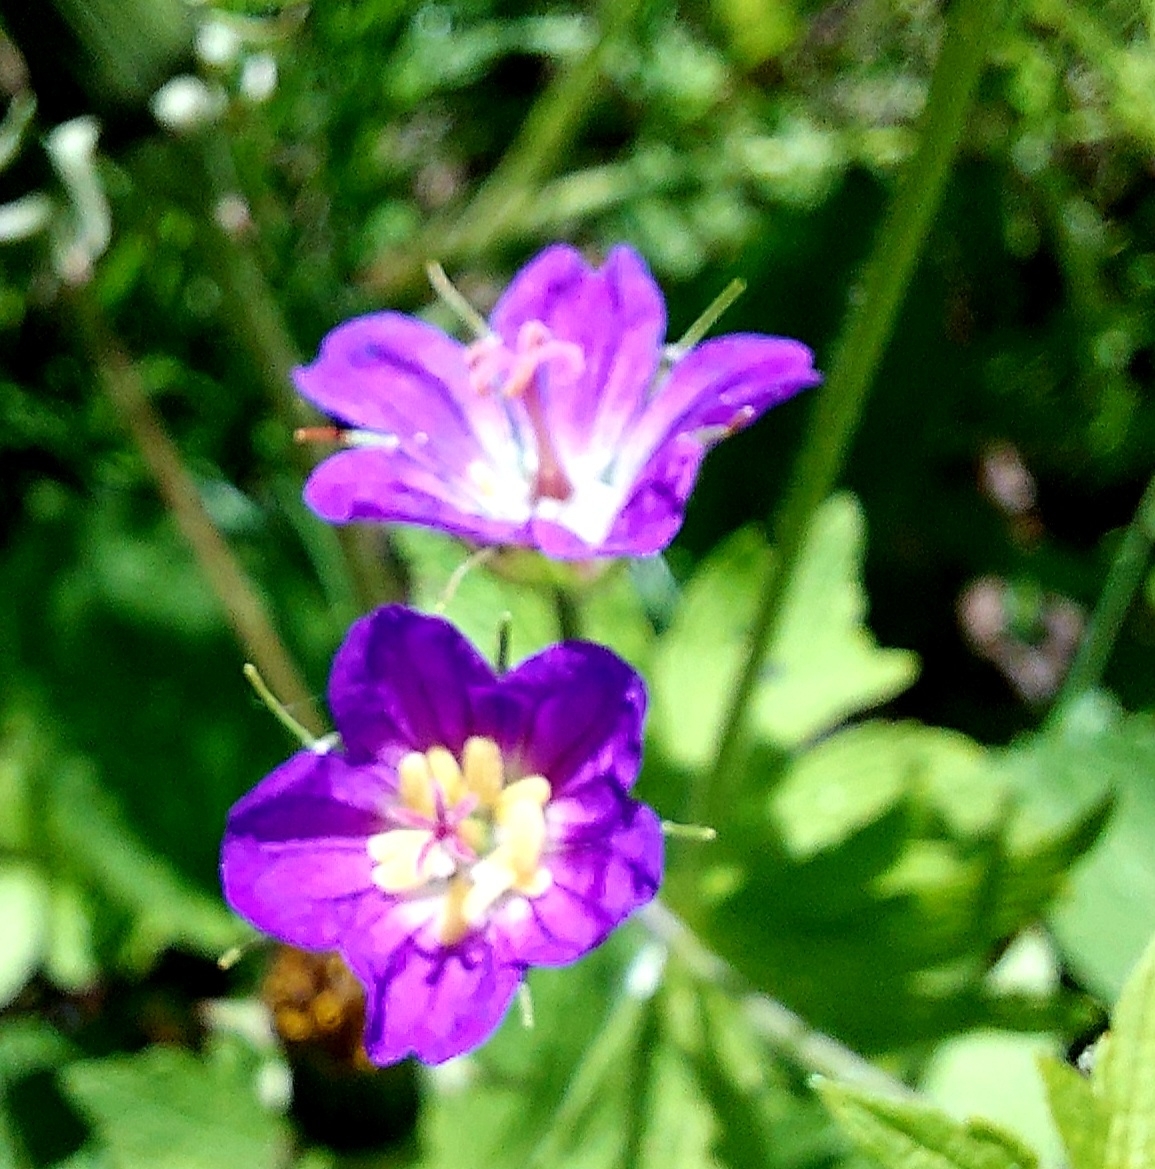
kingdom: Plantae
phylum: Tracheophyta
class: Magnoliopsida
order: Geraniales
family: Geraniaceae
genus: Geranium
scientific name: Geranium sylvaticum
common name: Wood crane's-bill
